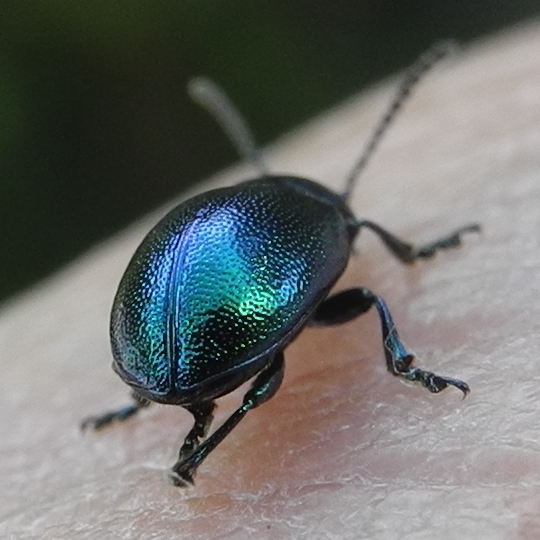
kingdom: Animalia
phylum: Arthropoda
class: Insecta
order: Coleoptera
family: Chrysomelidae
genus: Gastrophysa
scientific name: Gastrophysa viridula
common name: Green dock beetle
